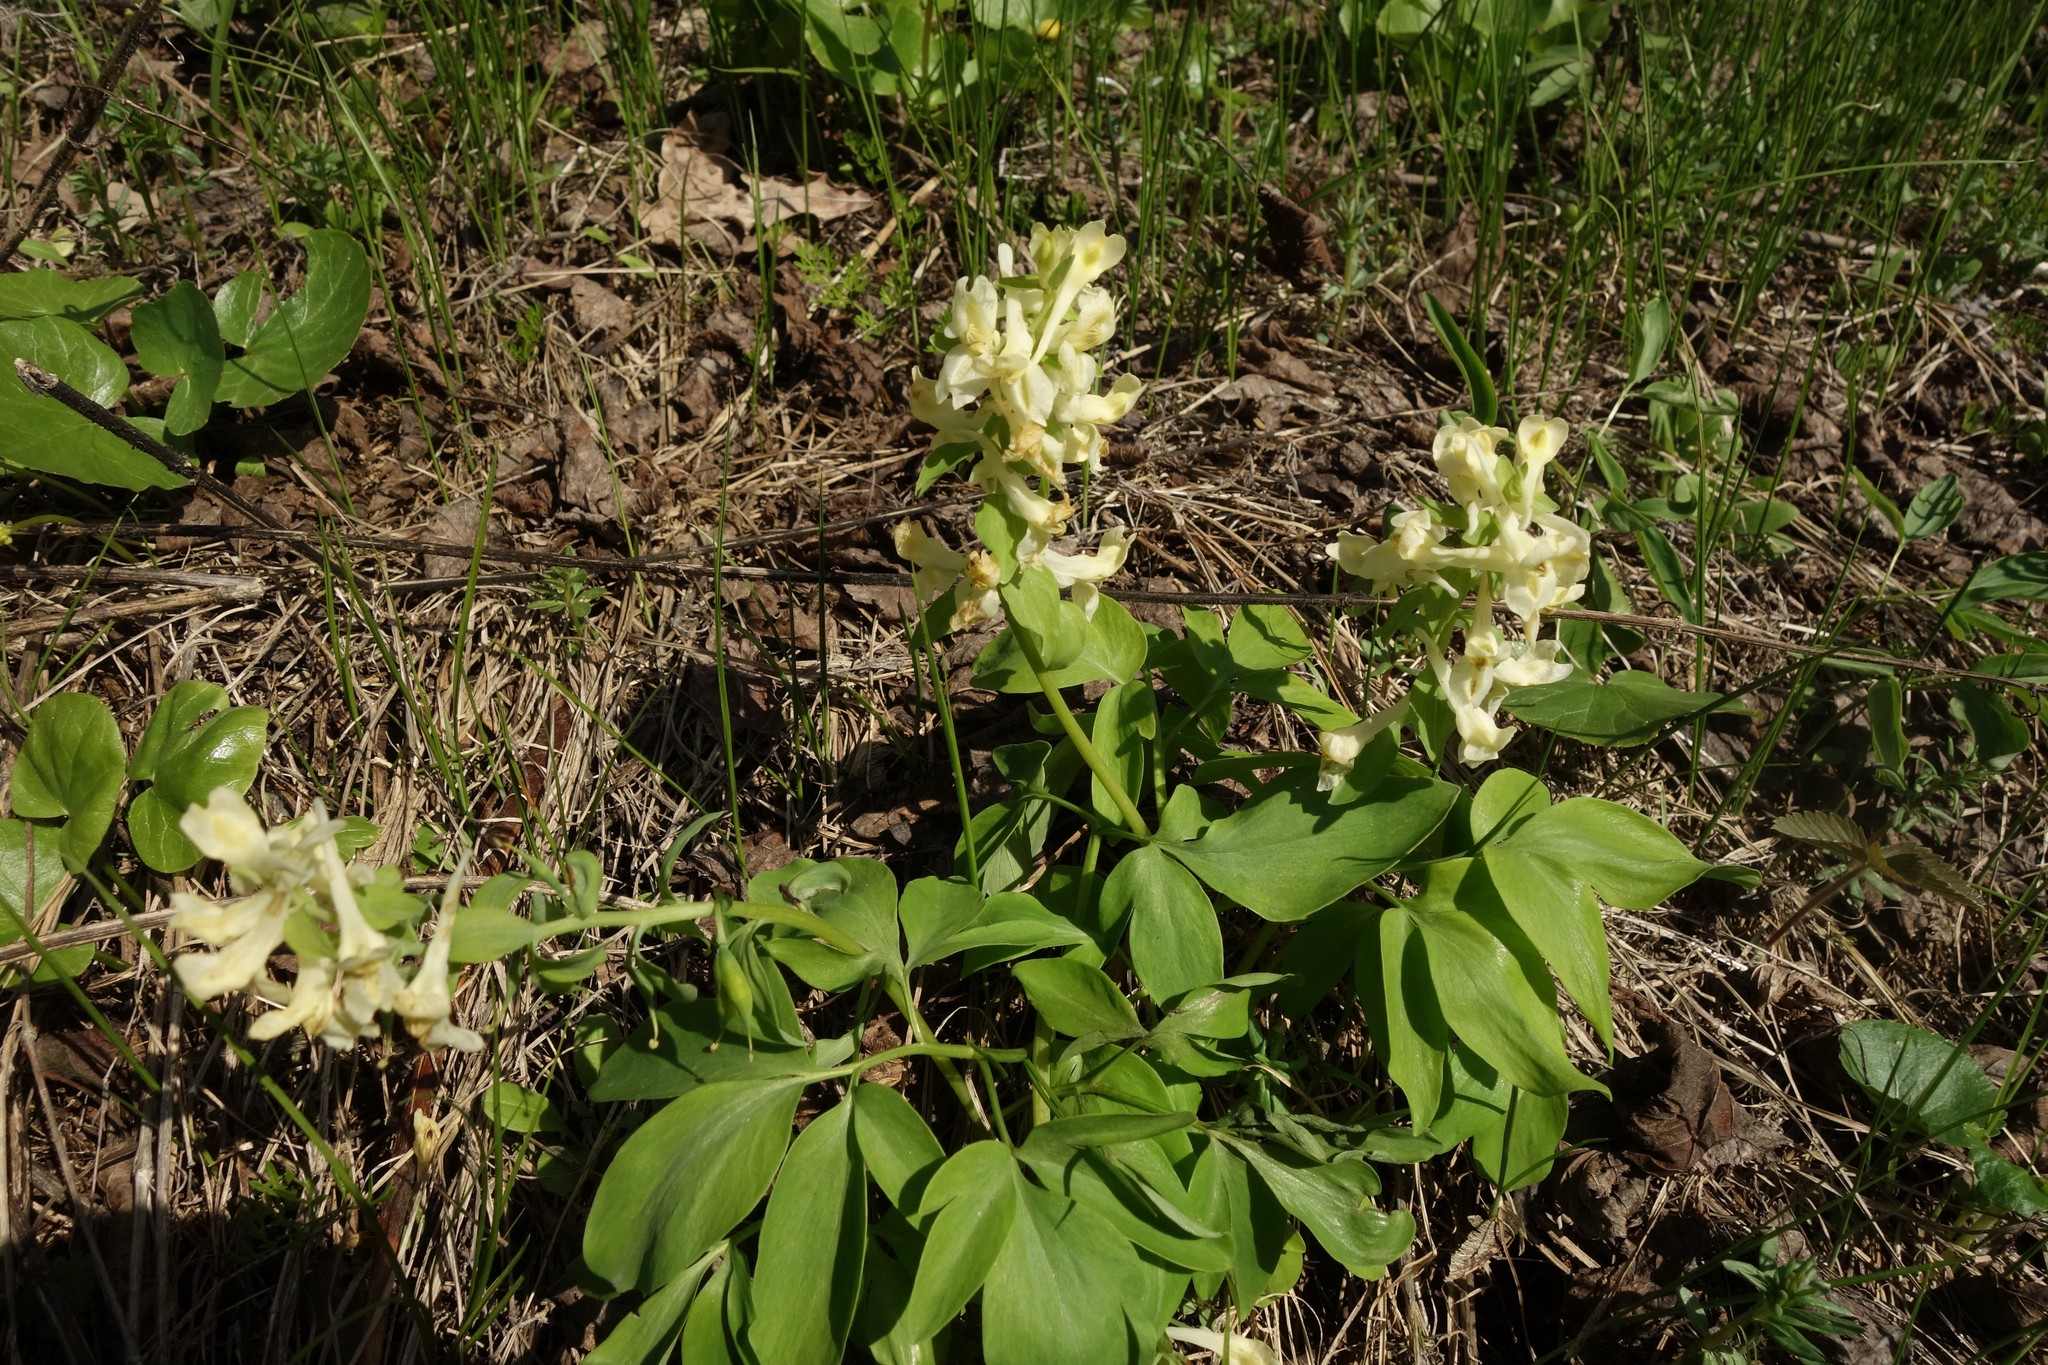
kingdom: Plantae
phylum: Tracheophyta
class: Magnoliopsida
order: Ranunculales
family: Papaveraceae
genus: Corydalis
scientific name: Corydalis cava
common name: Hollowroot
